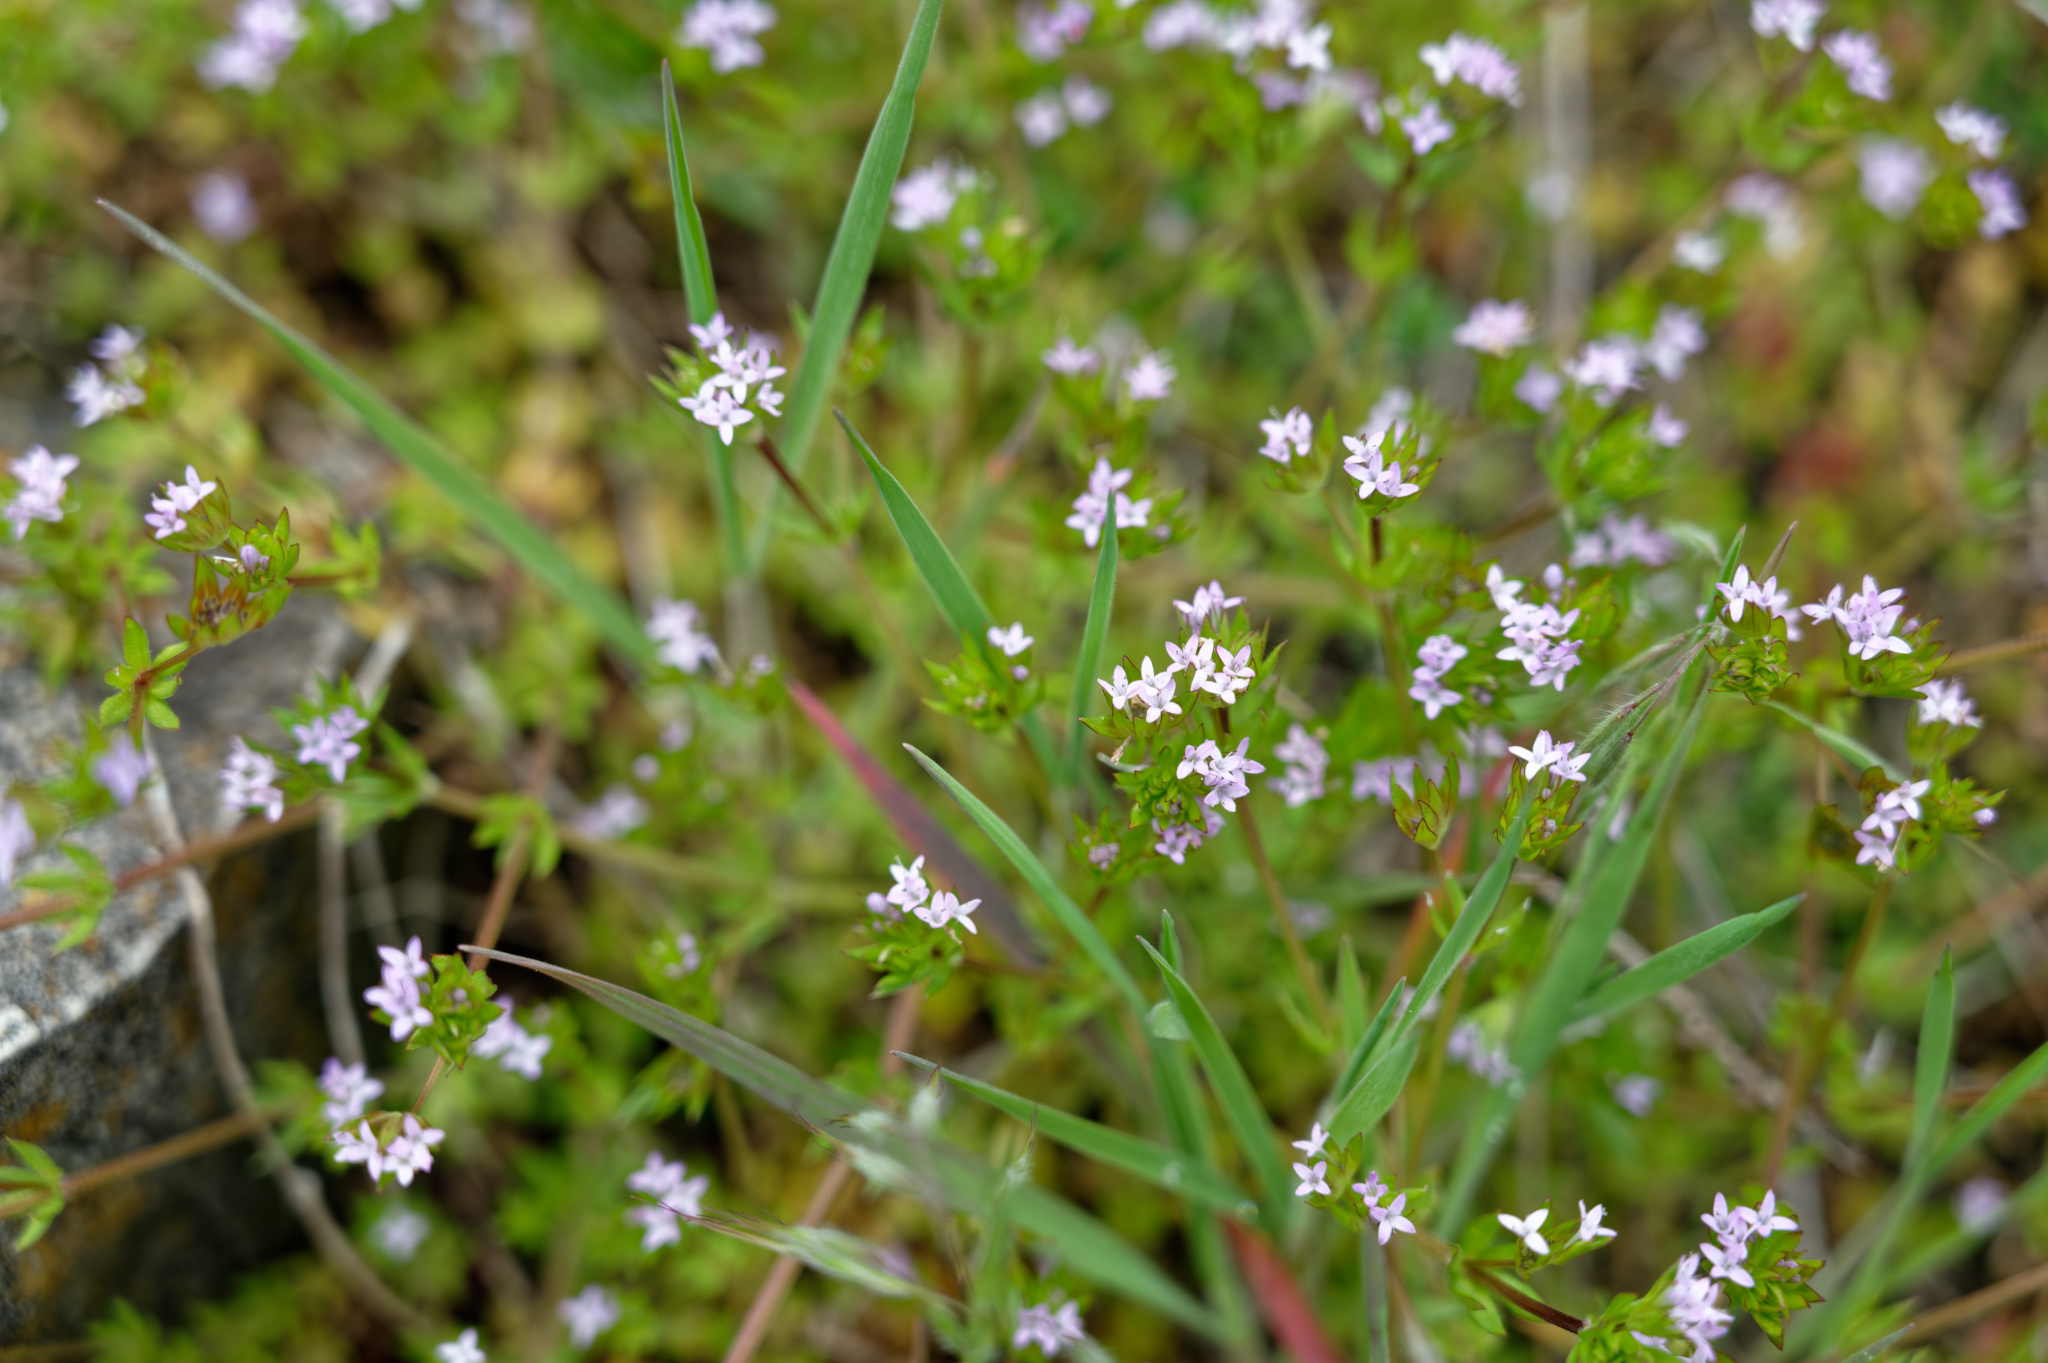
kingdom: Plantae
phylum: Tracheophyta
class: Magnoliopsida
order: Gentianales
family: Rubiaceae
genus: Sherardia
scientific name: Sherardia arvensis
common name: Field madder
